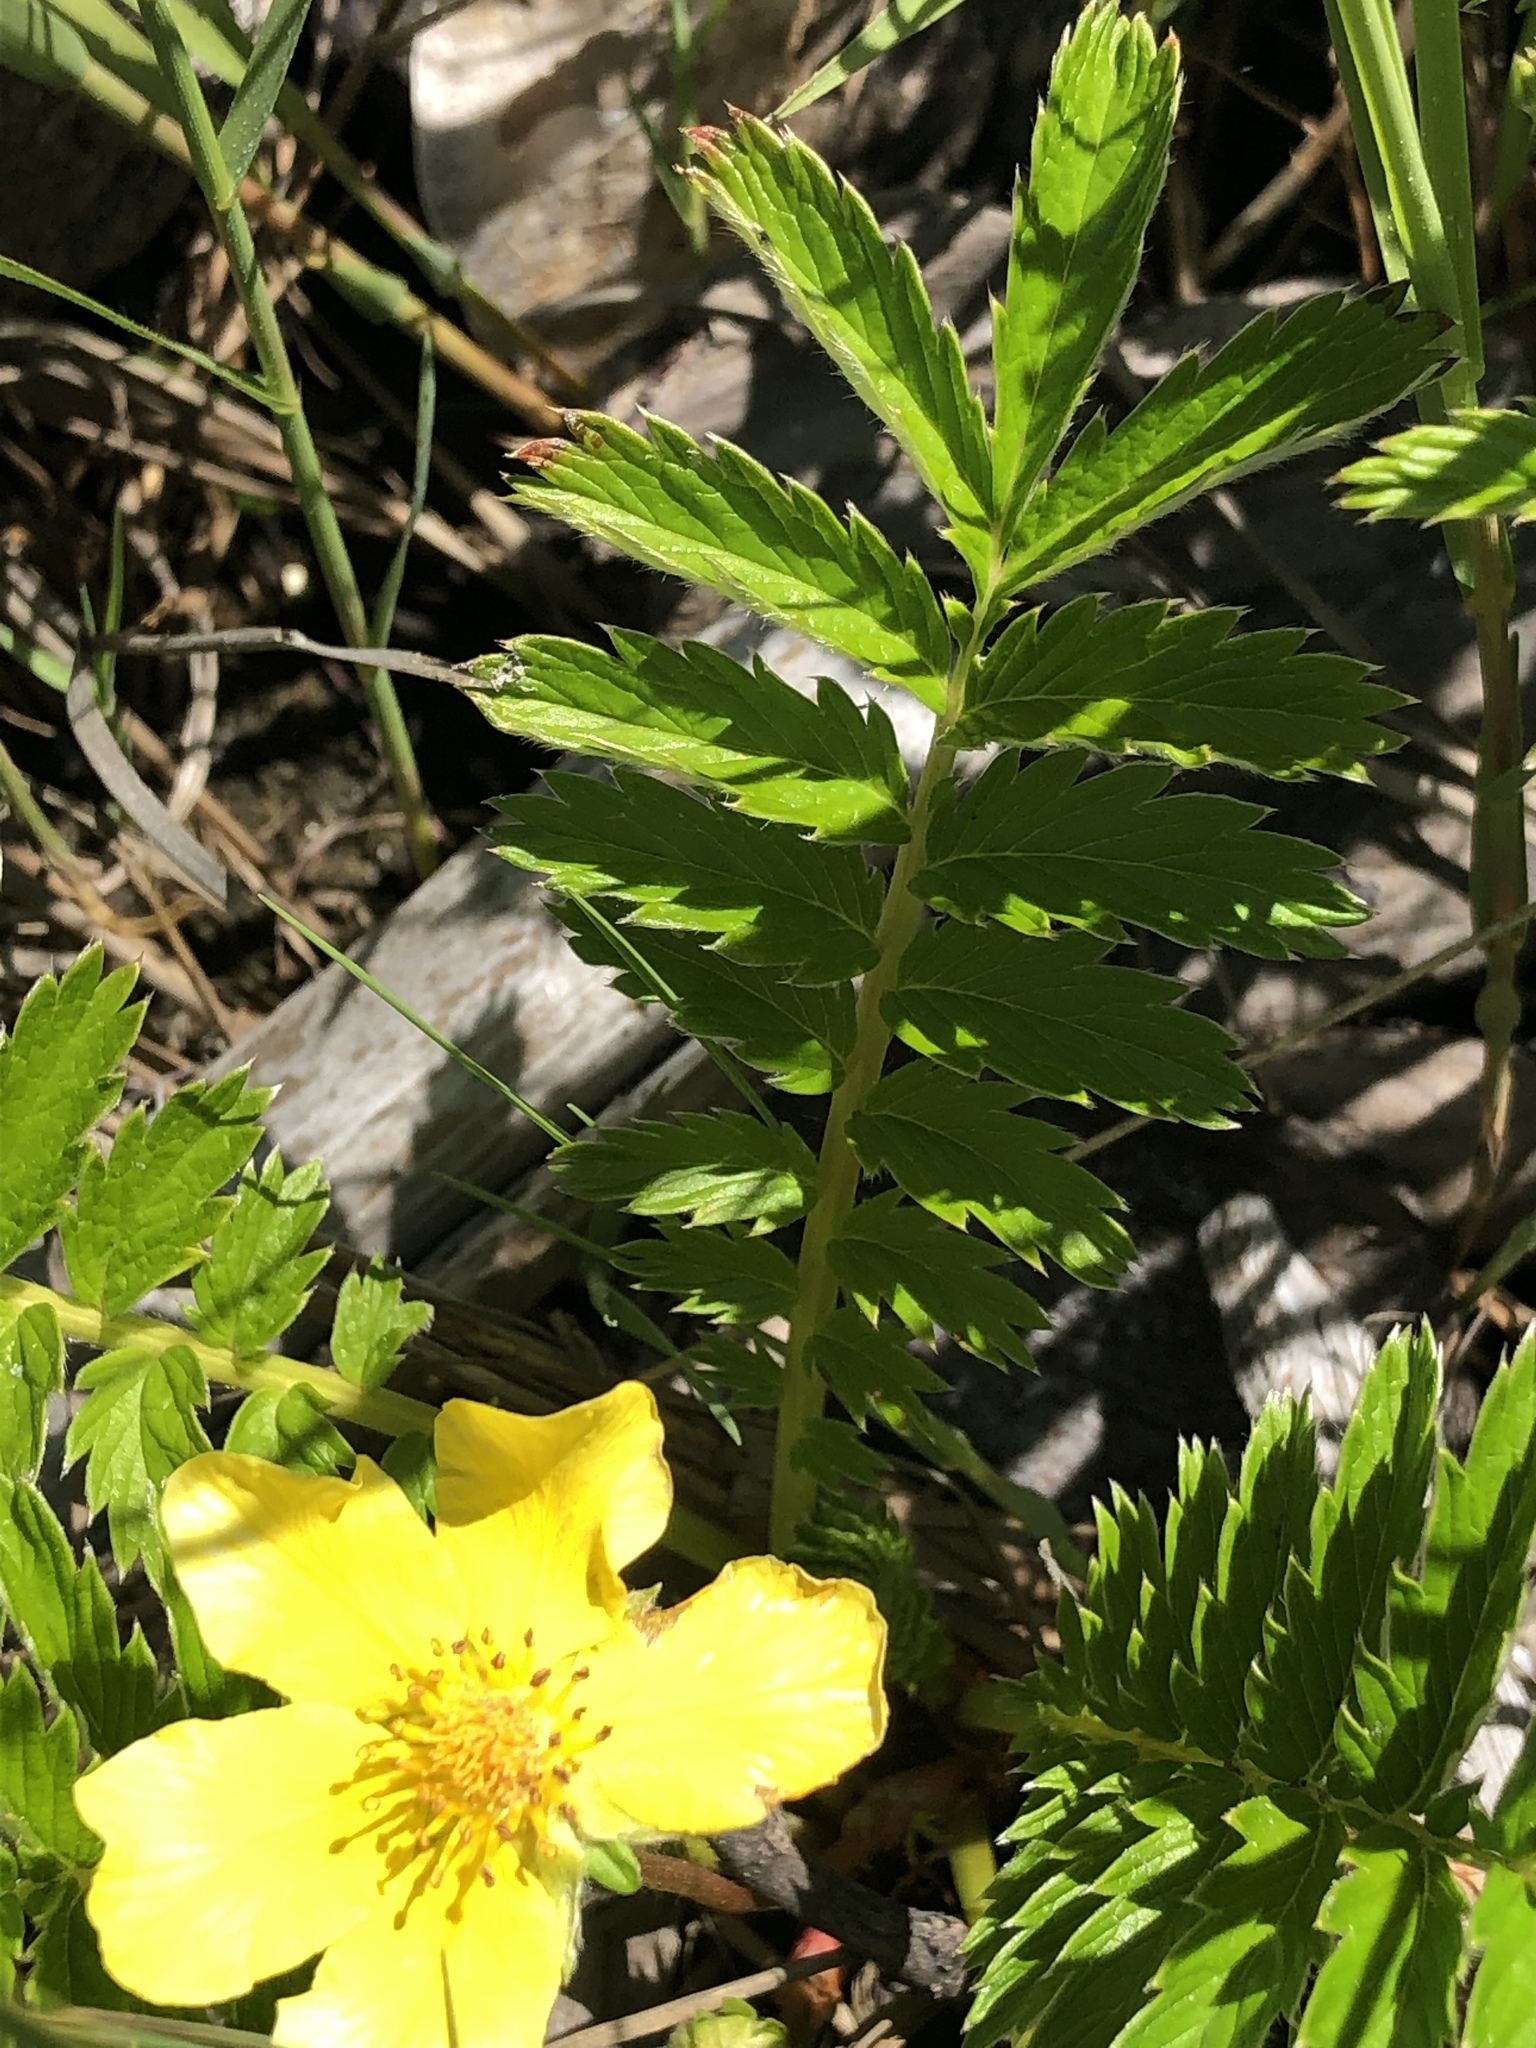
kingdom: Plantae
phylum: Tracheophyta
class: Magnoliopsida
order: Rosales
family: Rosaceae
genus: Argentina
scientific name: Argentina anserina
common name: Common silverweed
